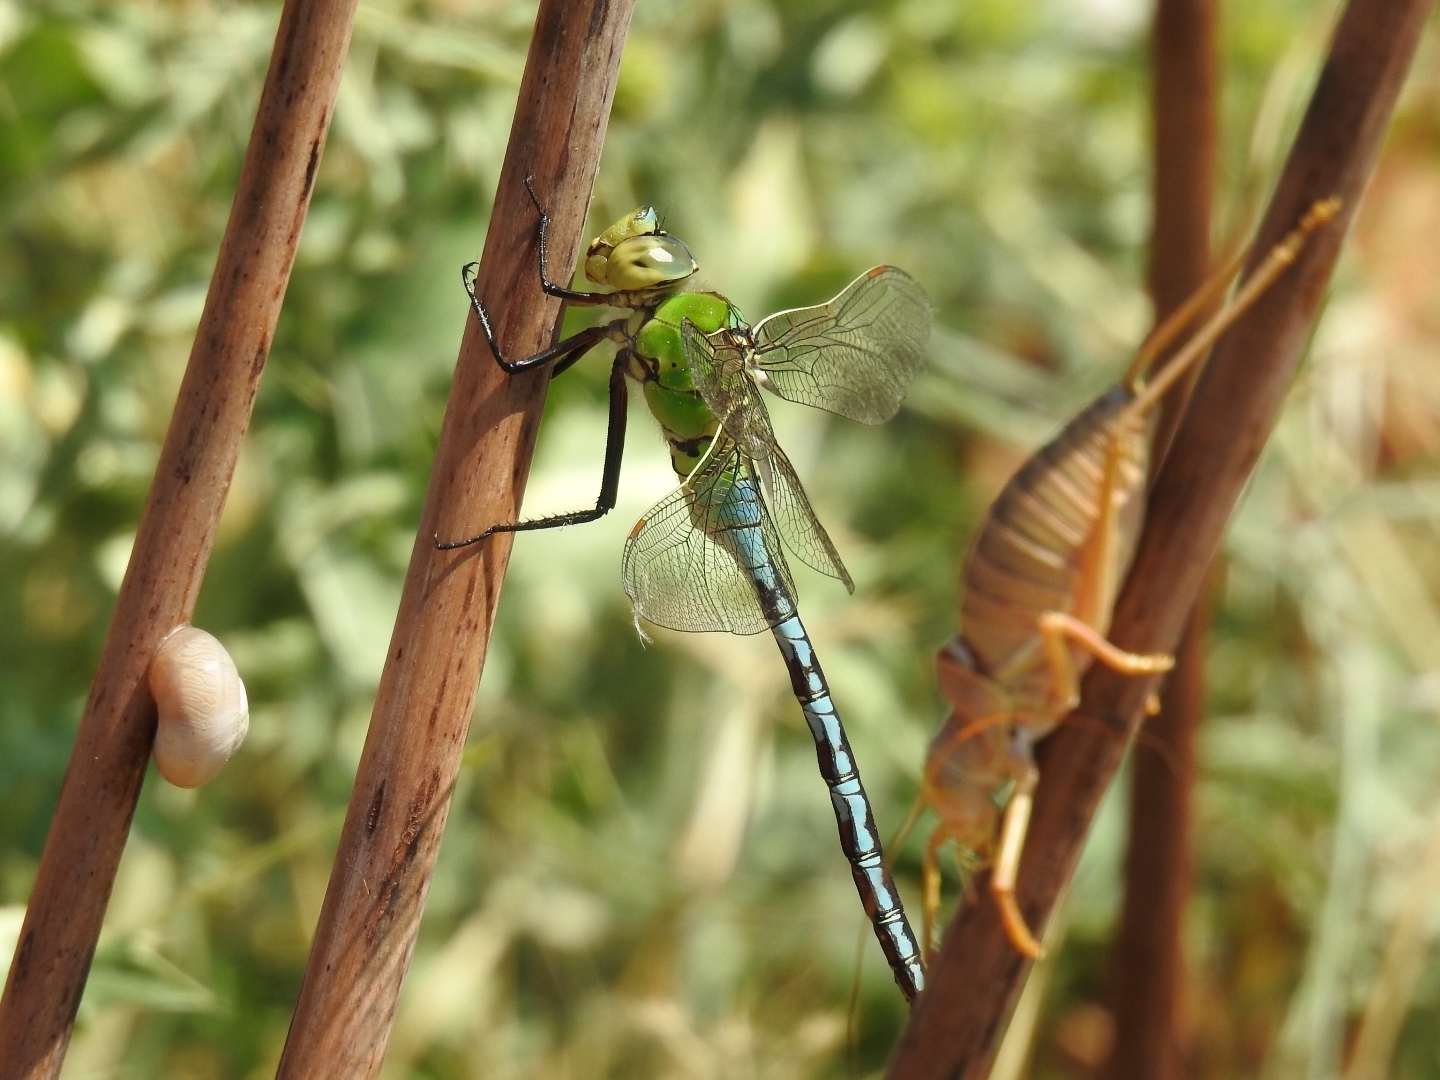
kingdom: Animalia
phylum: Arthropoda
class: Insecta
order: Odonata
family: Aeshnidae
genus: Anax
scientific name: Anax imperator
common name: Emperor dragonfly
